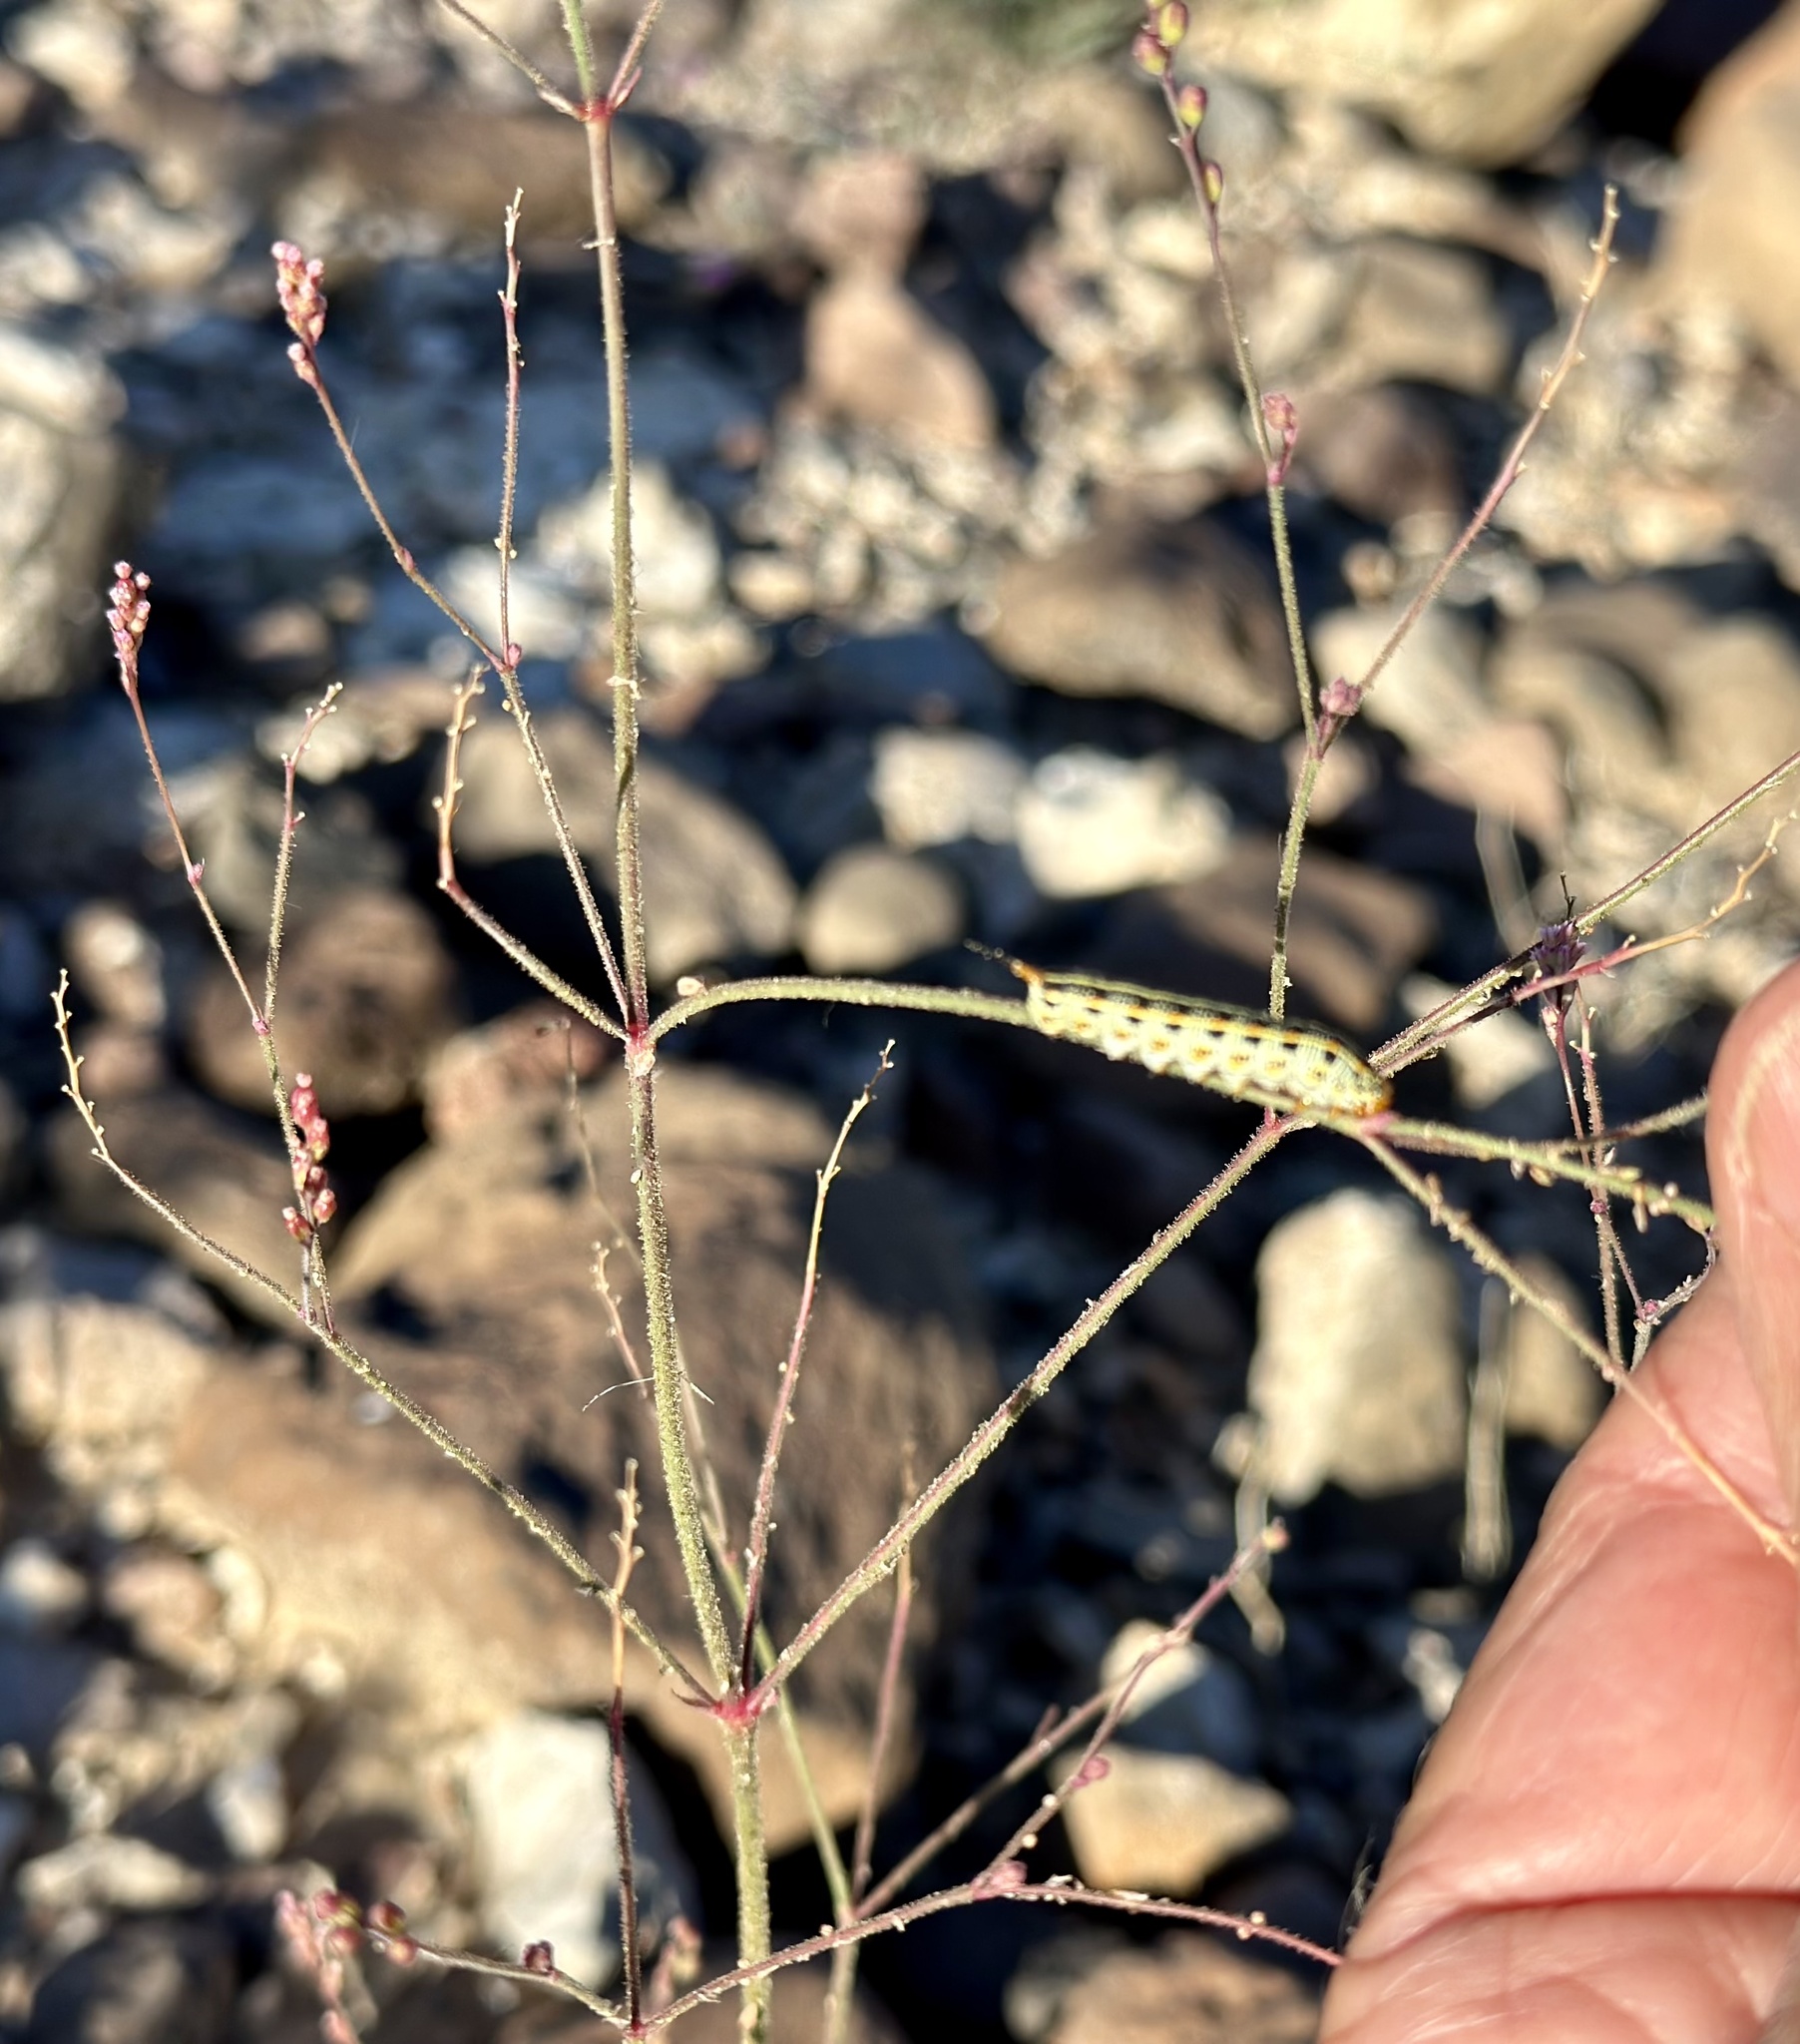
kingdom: Plantae
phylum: Tracheophyta
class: Magnoliopsida
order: Caryophyllales
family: Nyctaginaceae
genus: Boerhavia
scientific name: Boerhavia wrightii
